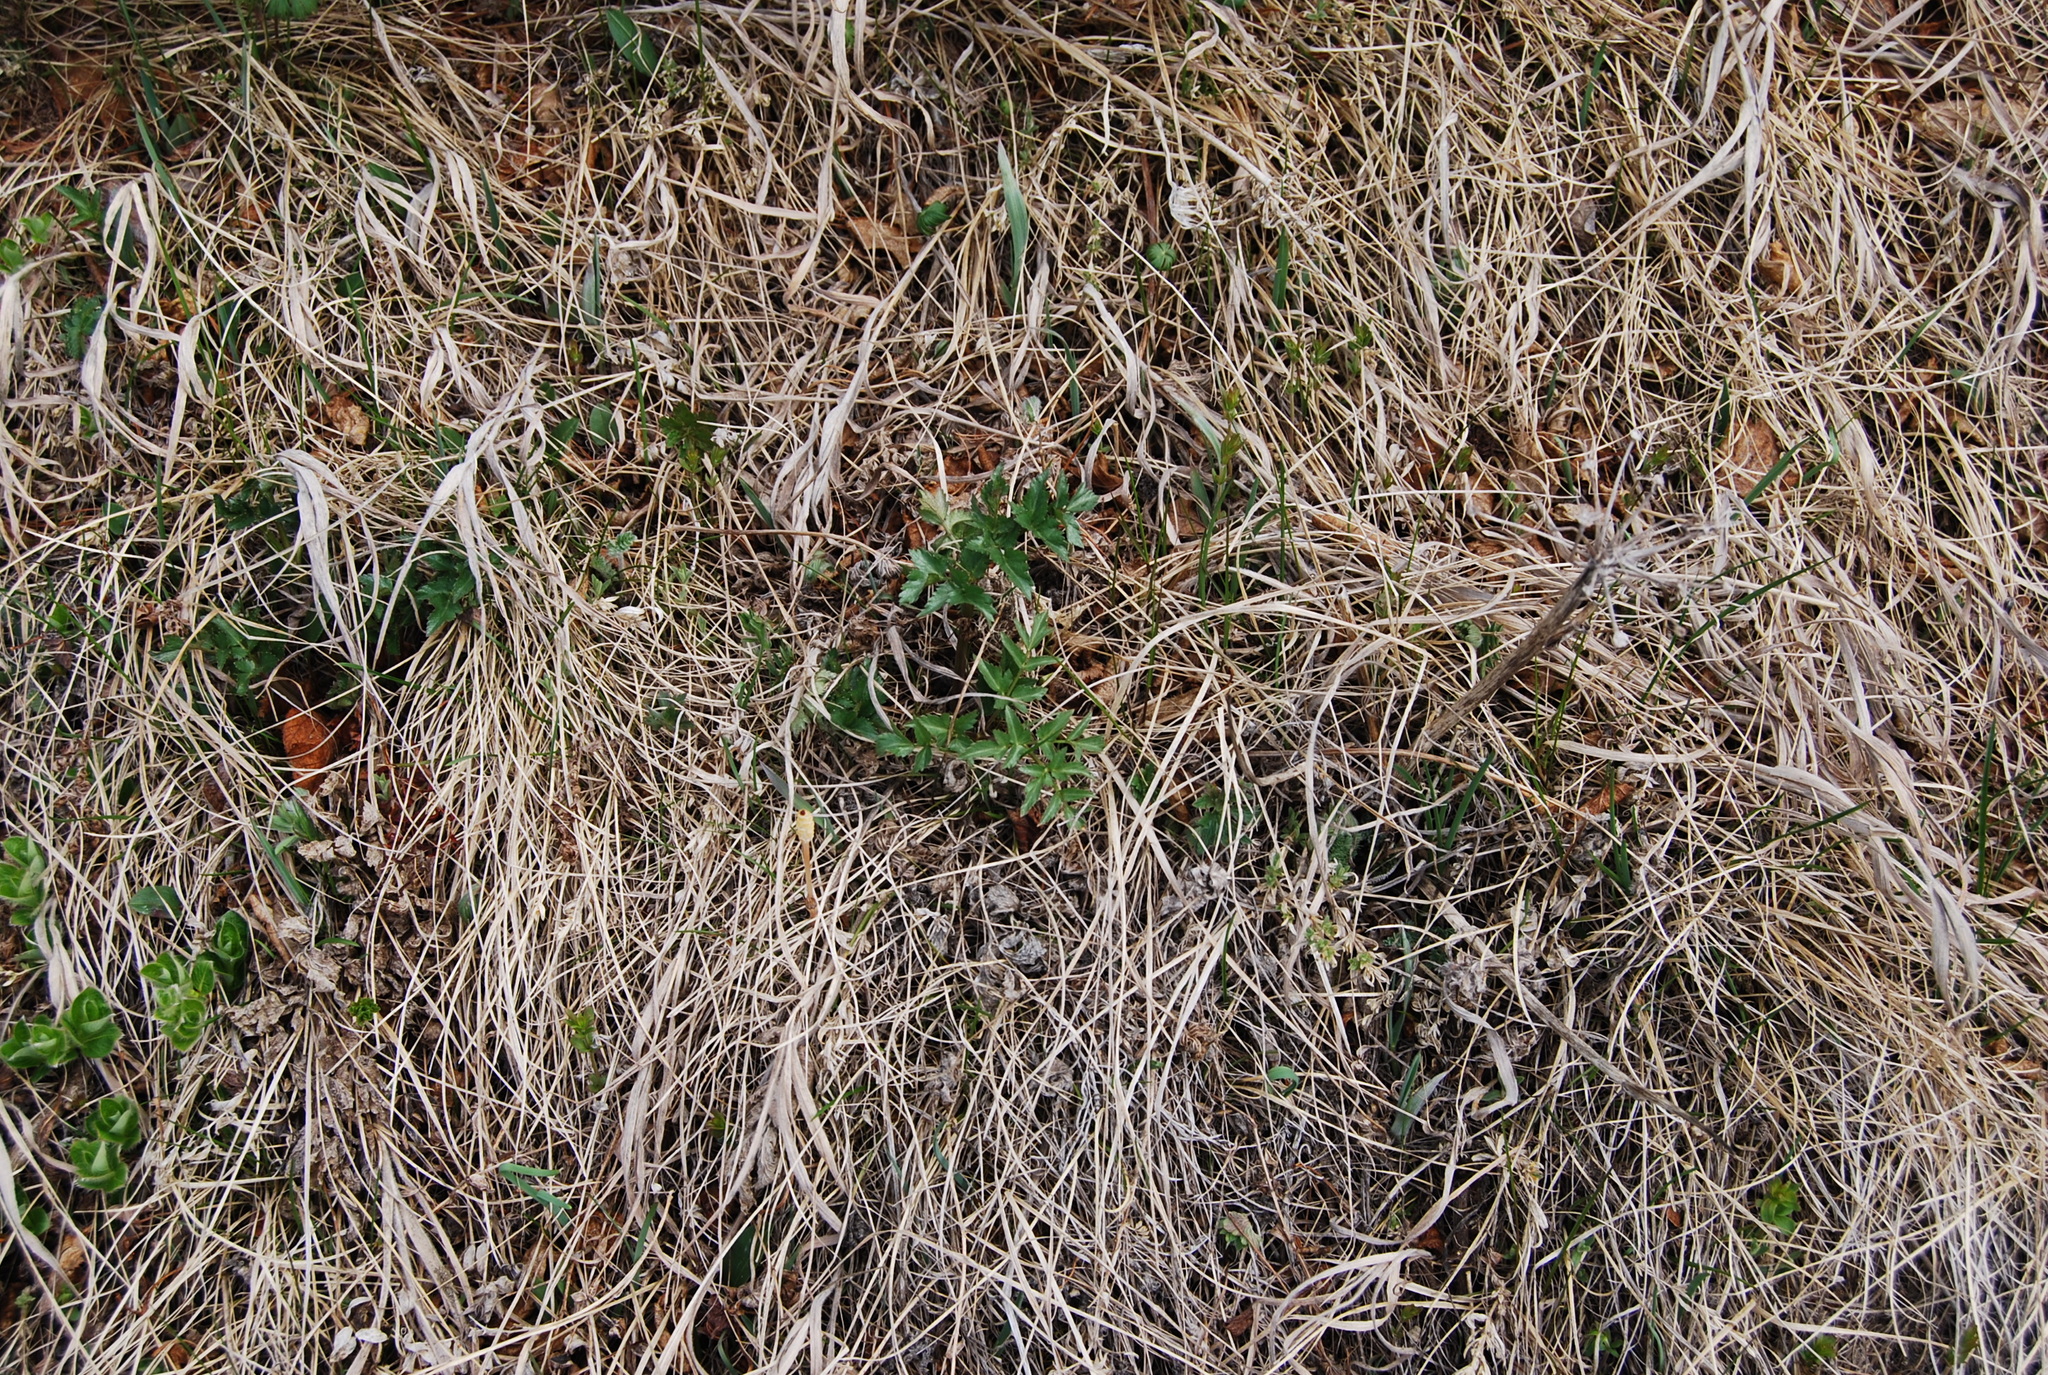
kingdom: Plantae
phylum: Tracheophyta
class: Magnoliopsida
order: Apiales
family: Apiaceae
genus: Magadania
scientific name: Magadania olaensis
